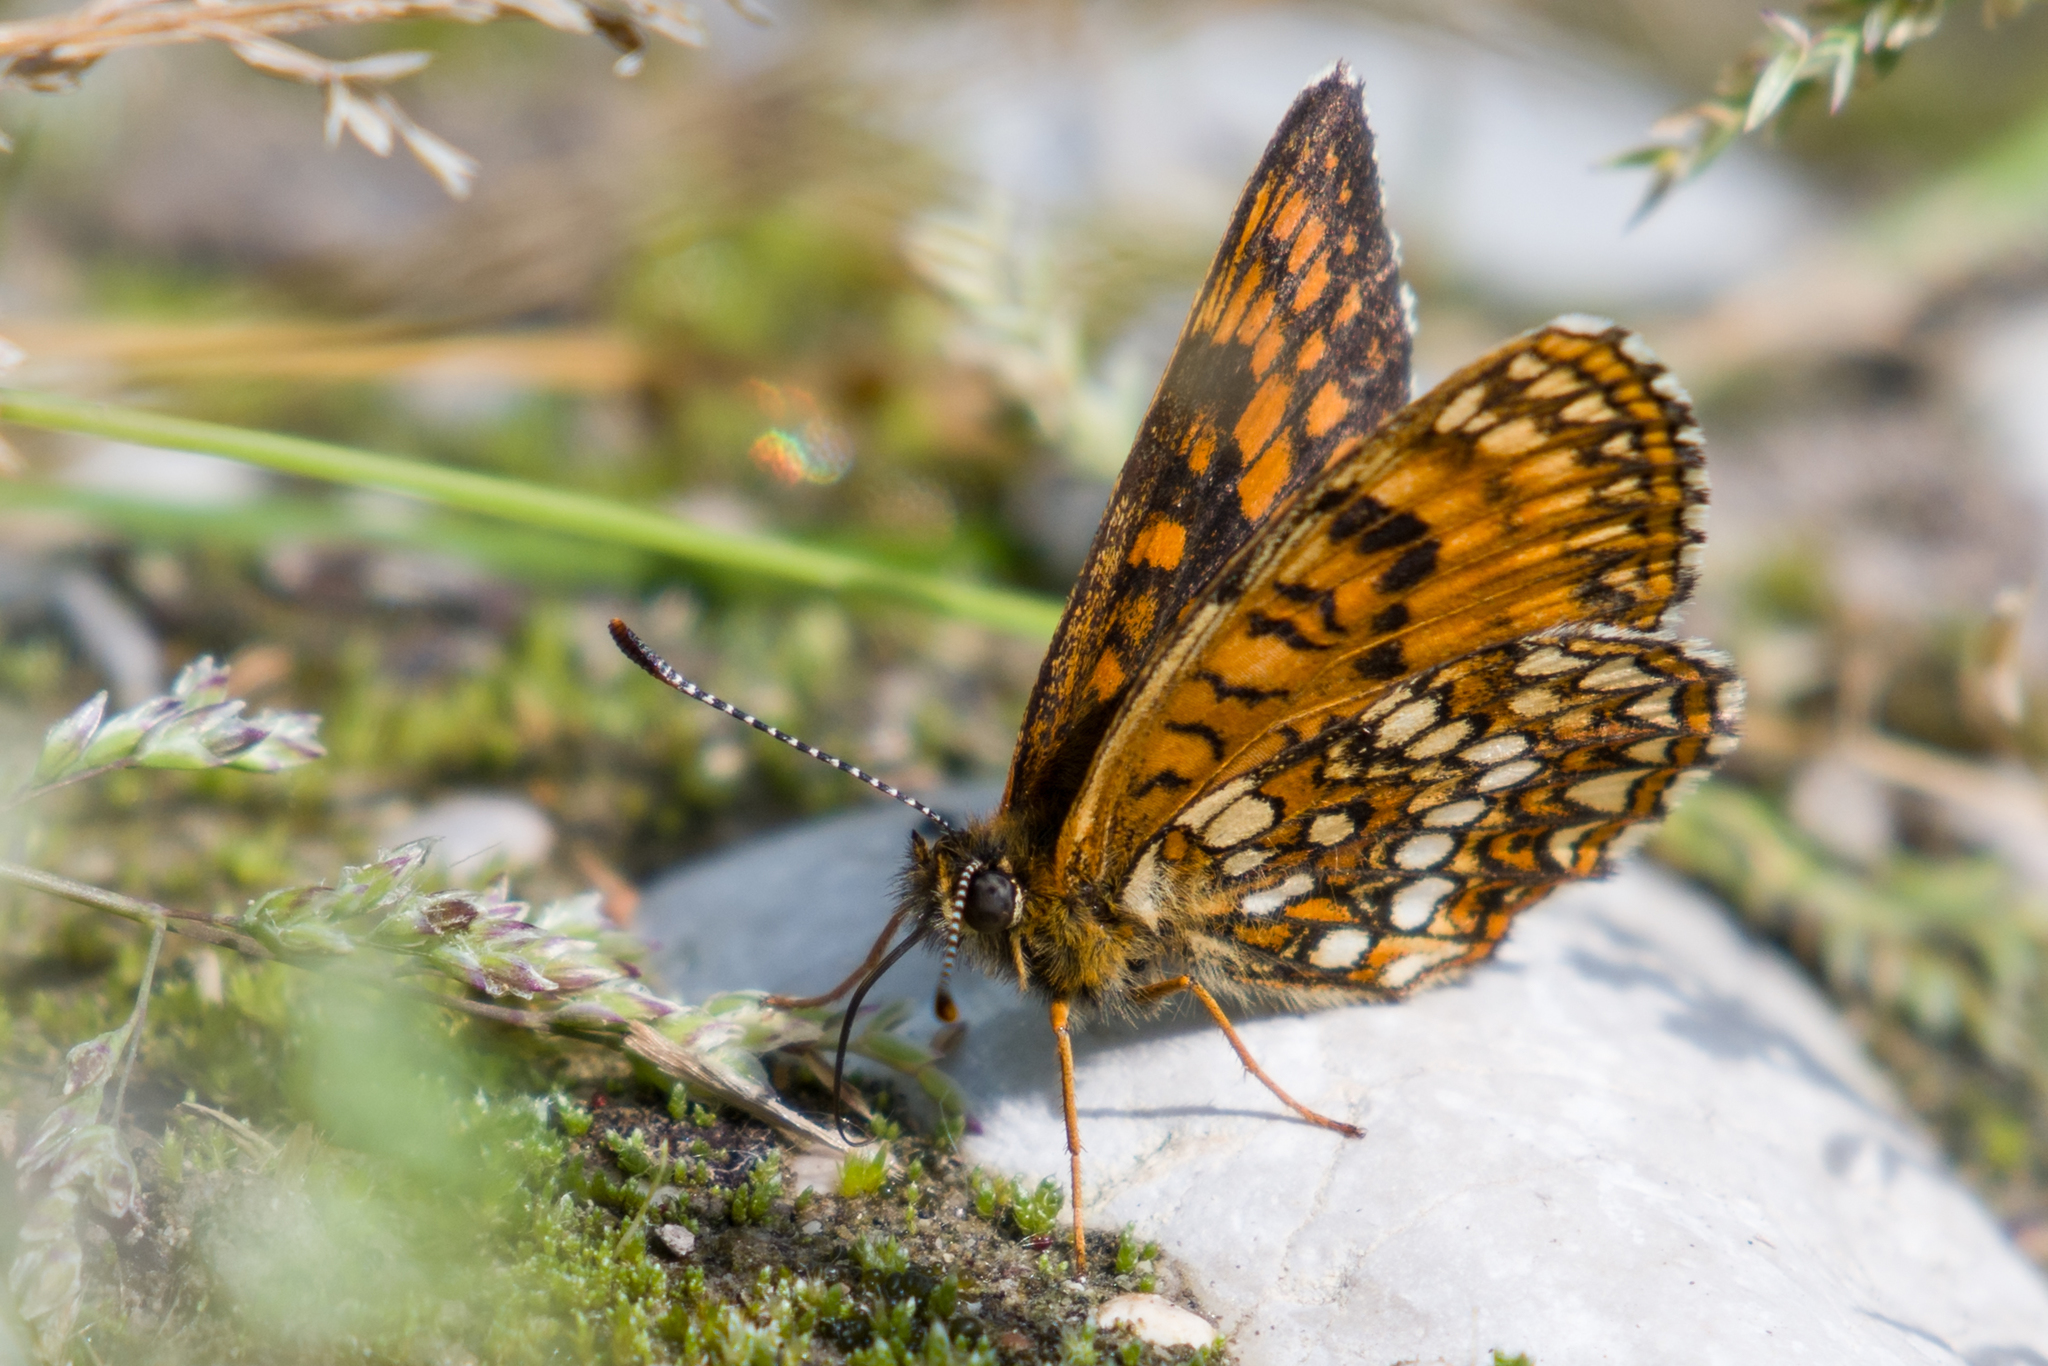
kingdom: Animalia
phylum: Arthropoda
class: Insecta
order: Lepidoptera
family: Nymphalidae
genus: Melitaea
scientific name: Melitaea diamina
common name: False heath fritillary
